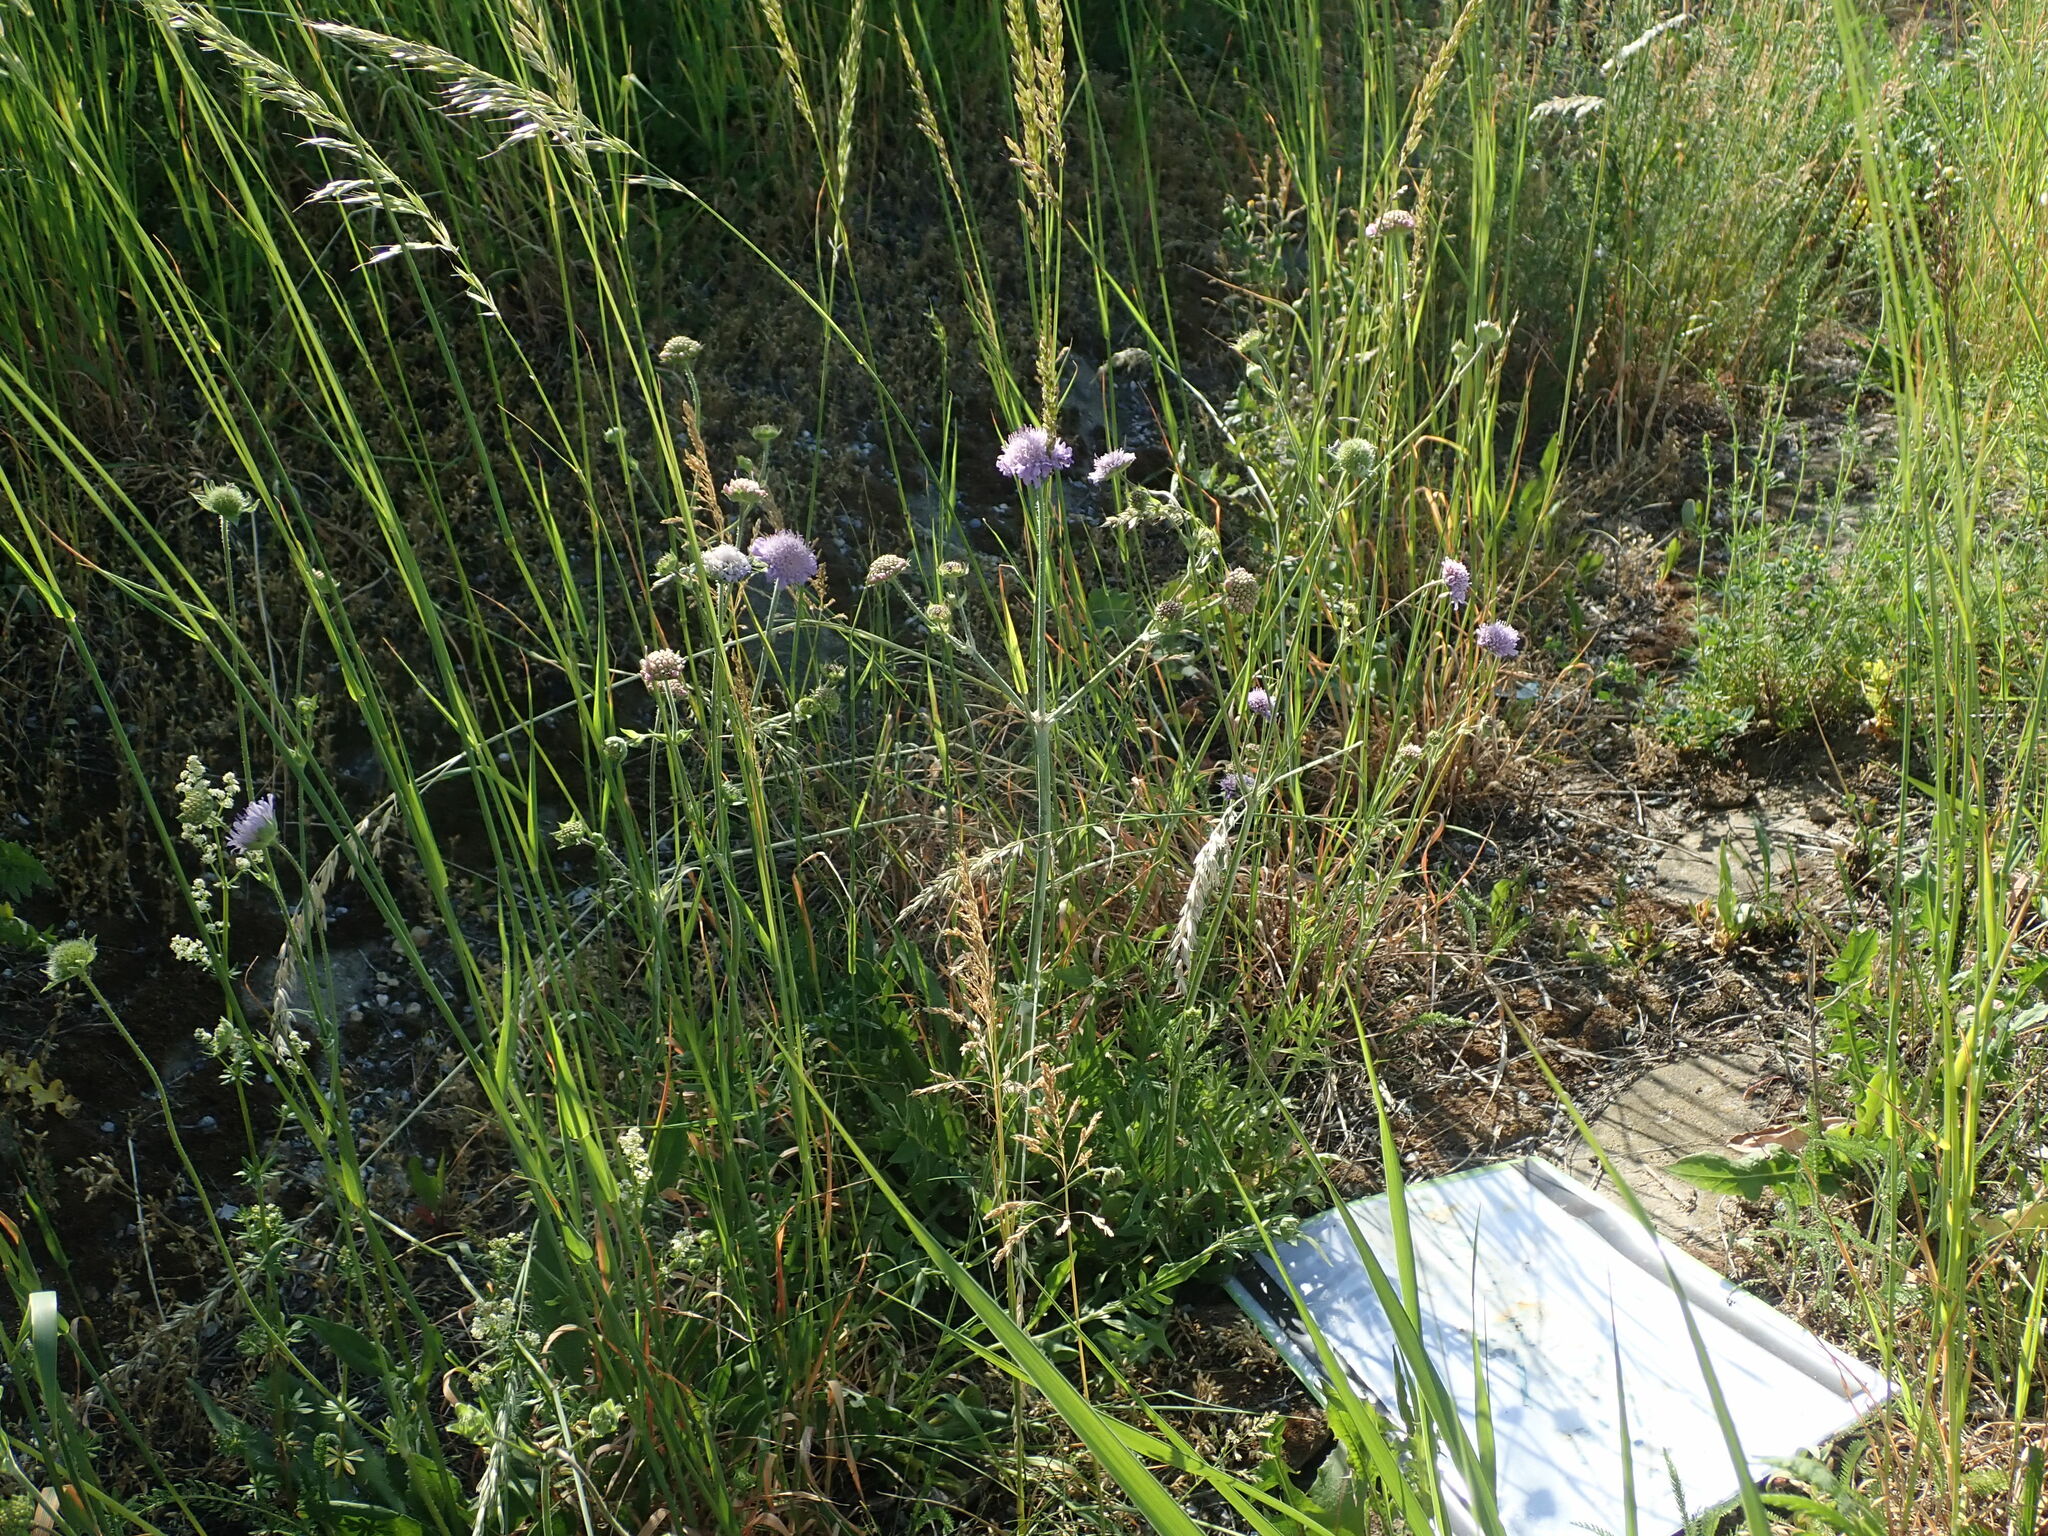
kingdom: Plantae
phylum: Tracheophyta
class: Magnoliopsida
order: Dipsacales
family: Caprifoliaceae
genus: Knautia
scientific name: Knautia arvensis
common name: Field scabiosa
